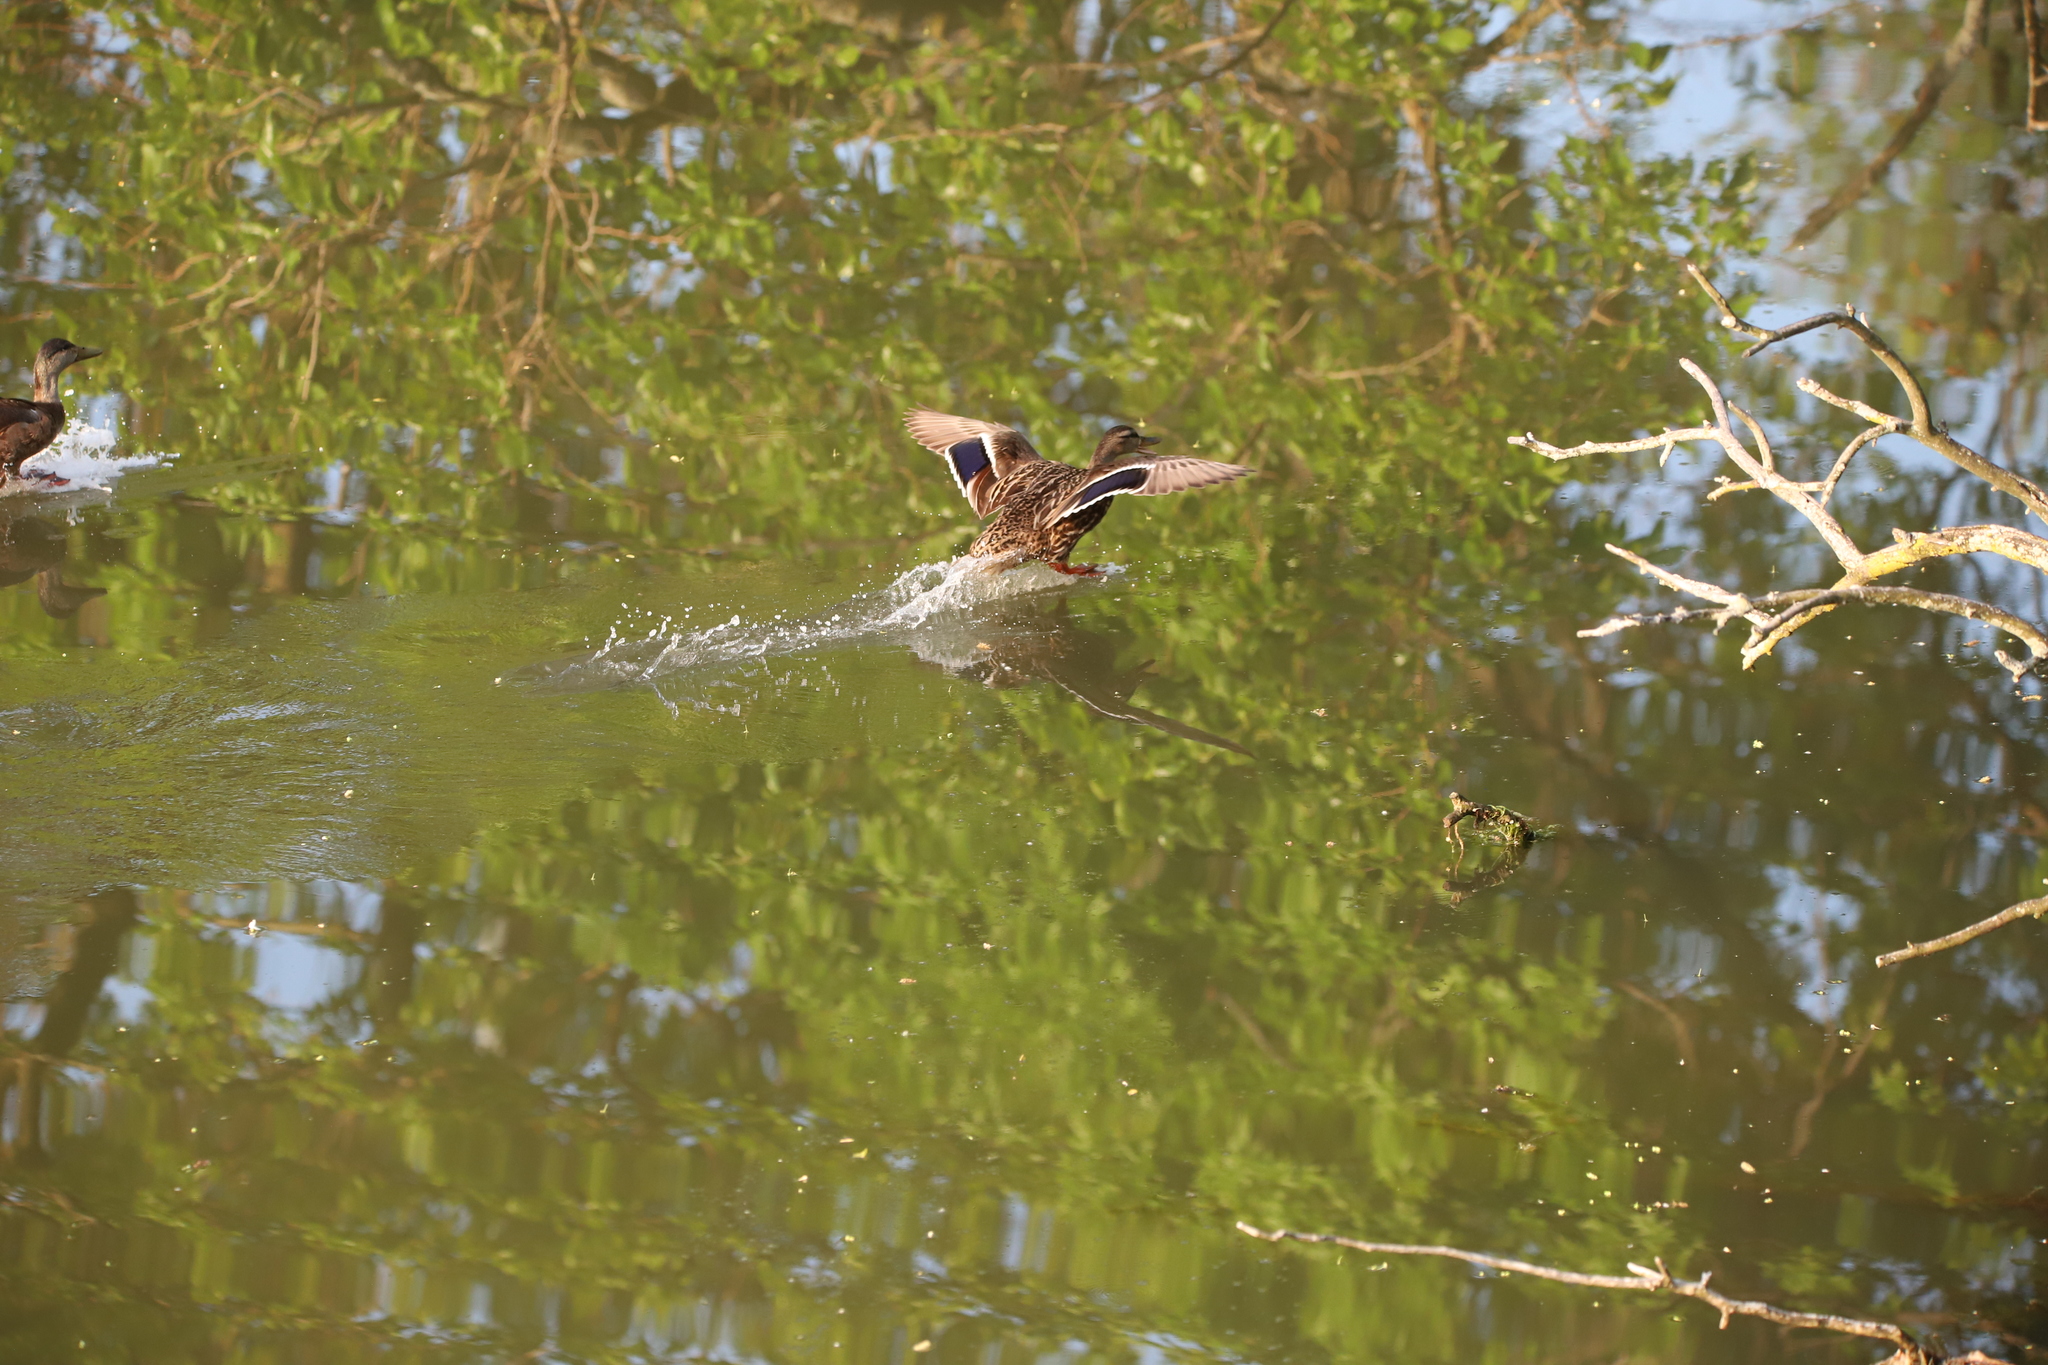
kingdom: Animalia
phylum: Chordata
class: Aves
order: Anseriformes
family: Anatidae
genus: Anas
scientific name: Anas platyrhynchos
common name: Mallard
